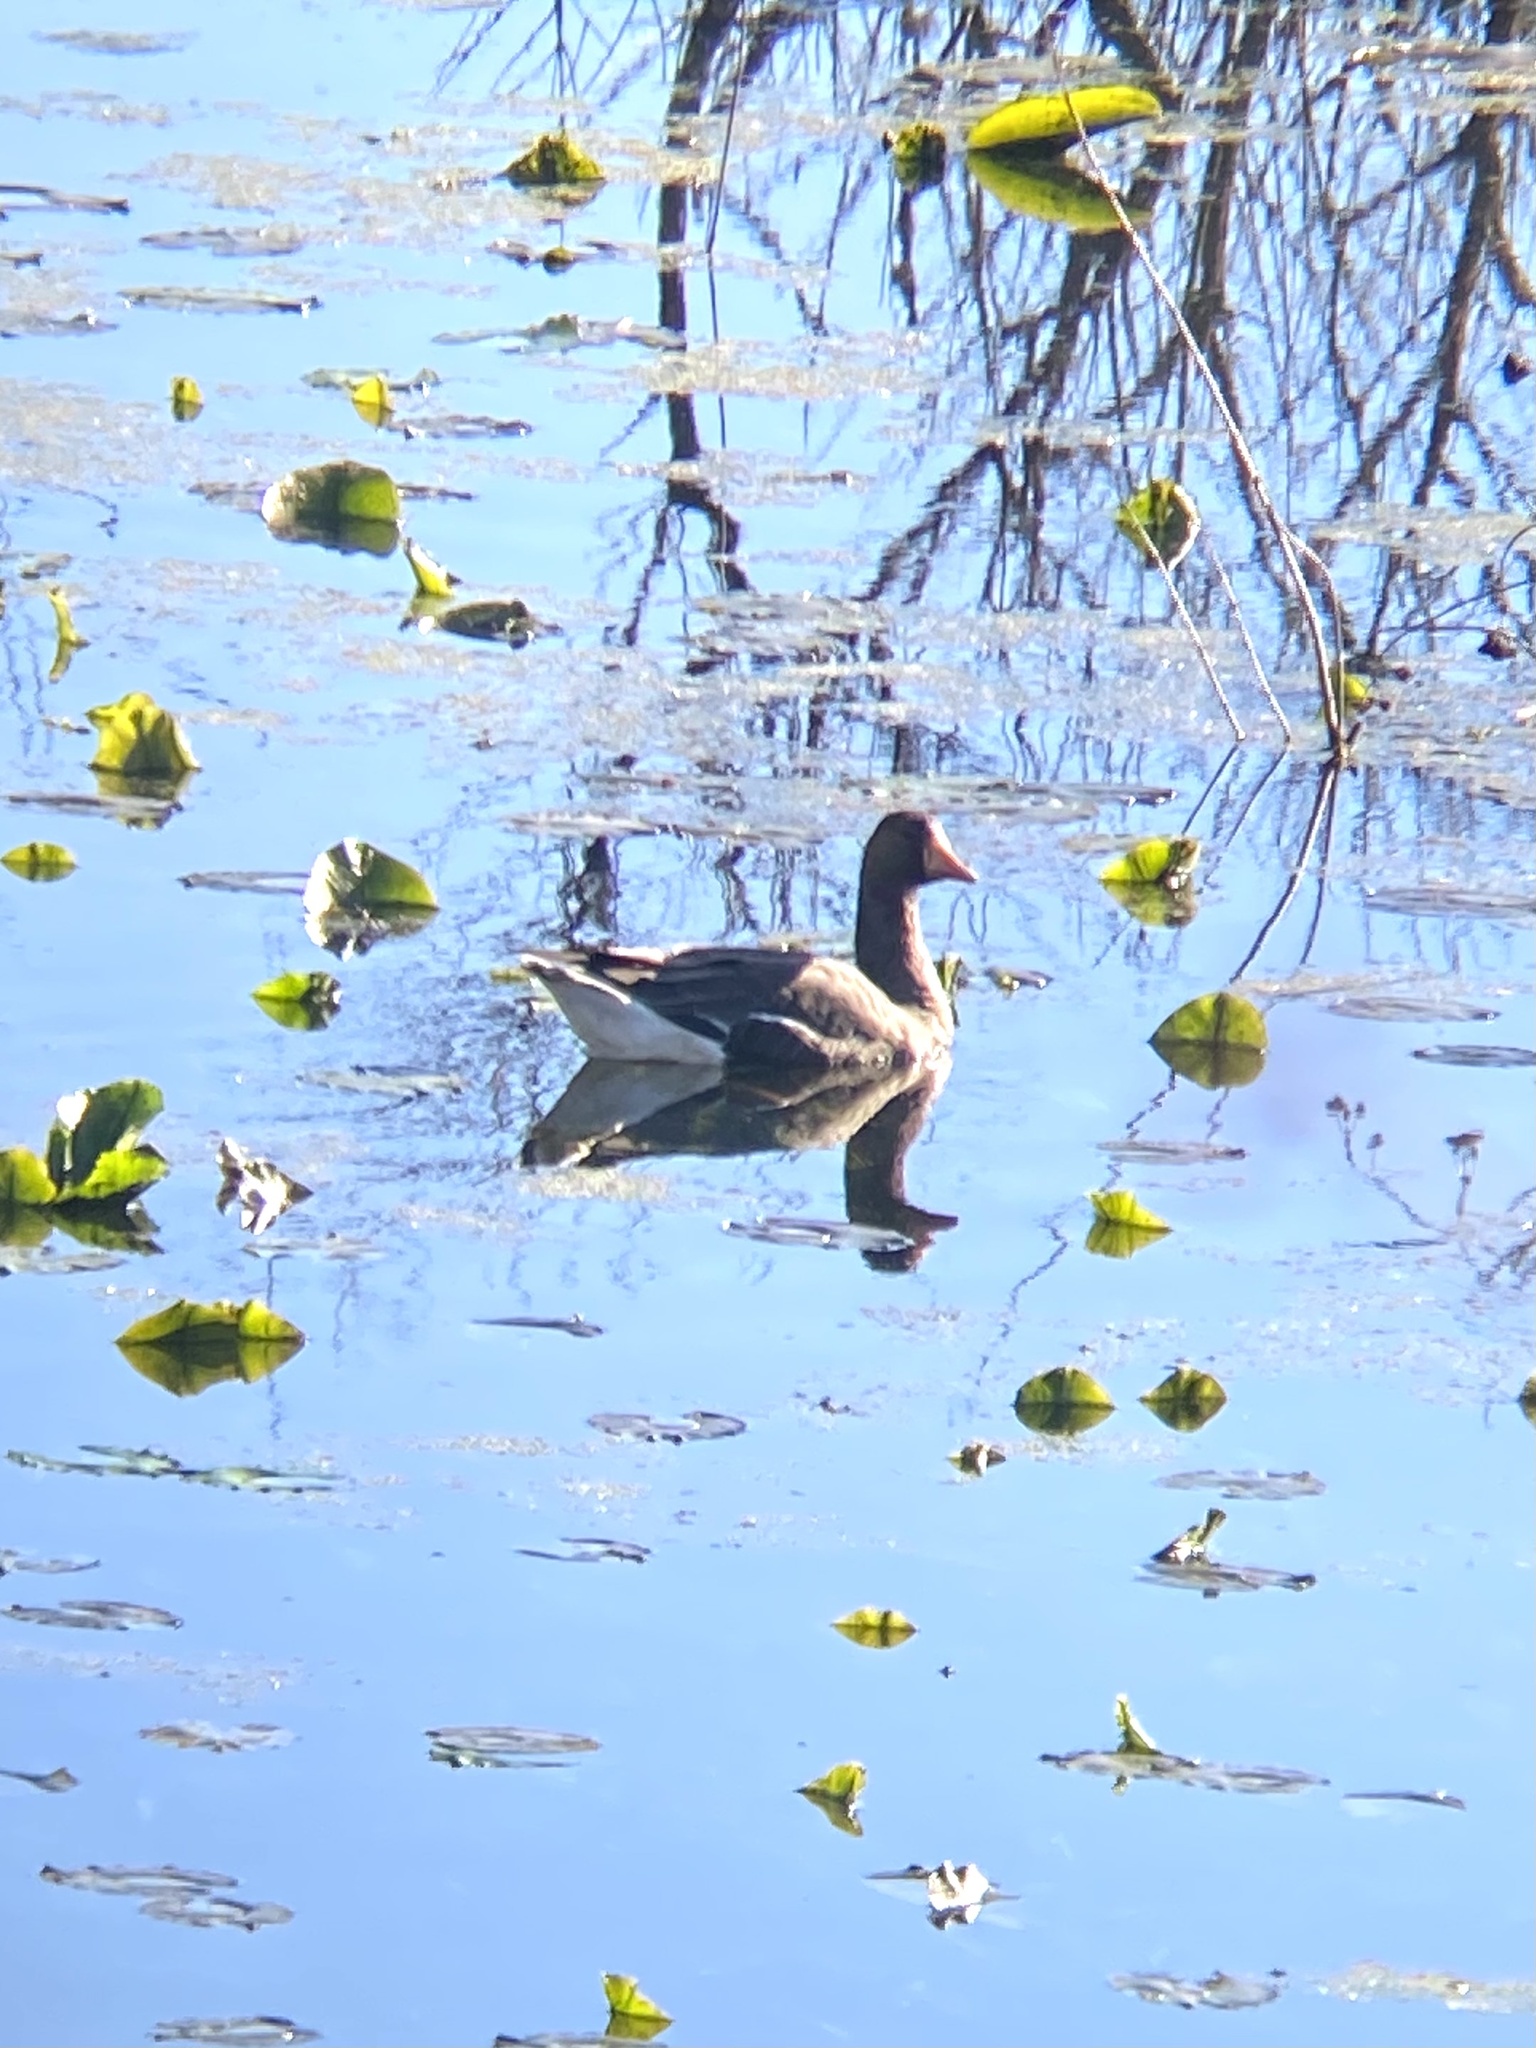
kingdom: Animalia
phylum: Chordata
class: Aves
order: Anseriformes
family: Anatidae
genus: Anser
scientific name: Anser albifrons
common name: Greater white-fronted goose
